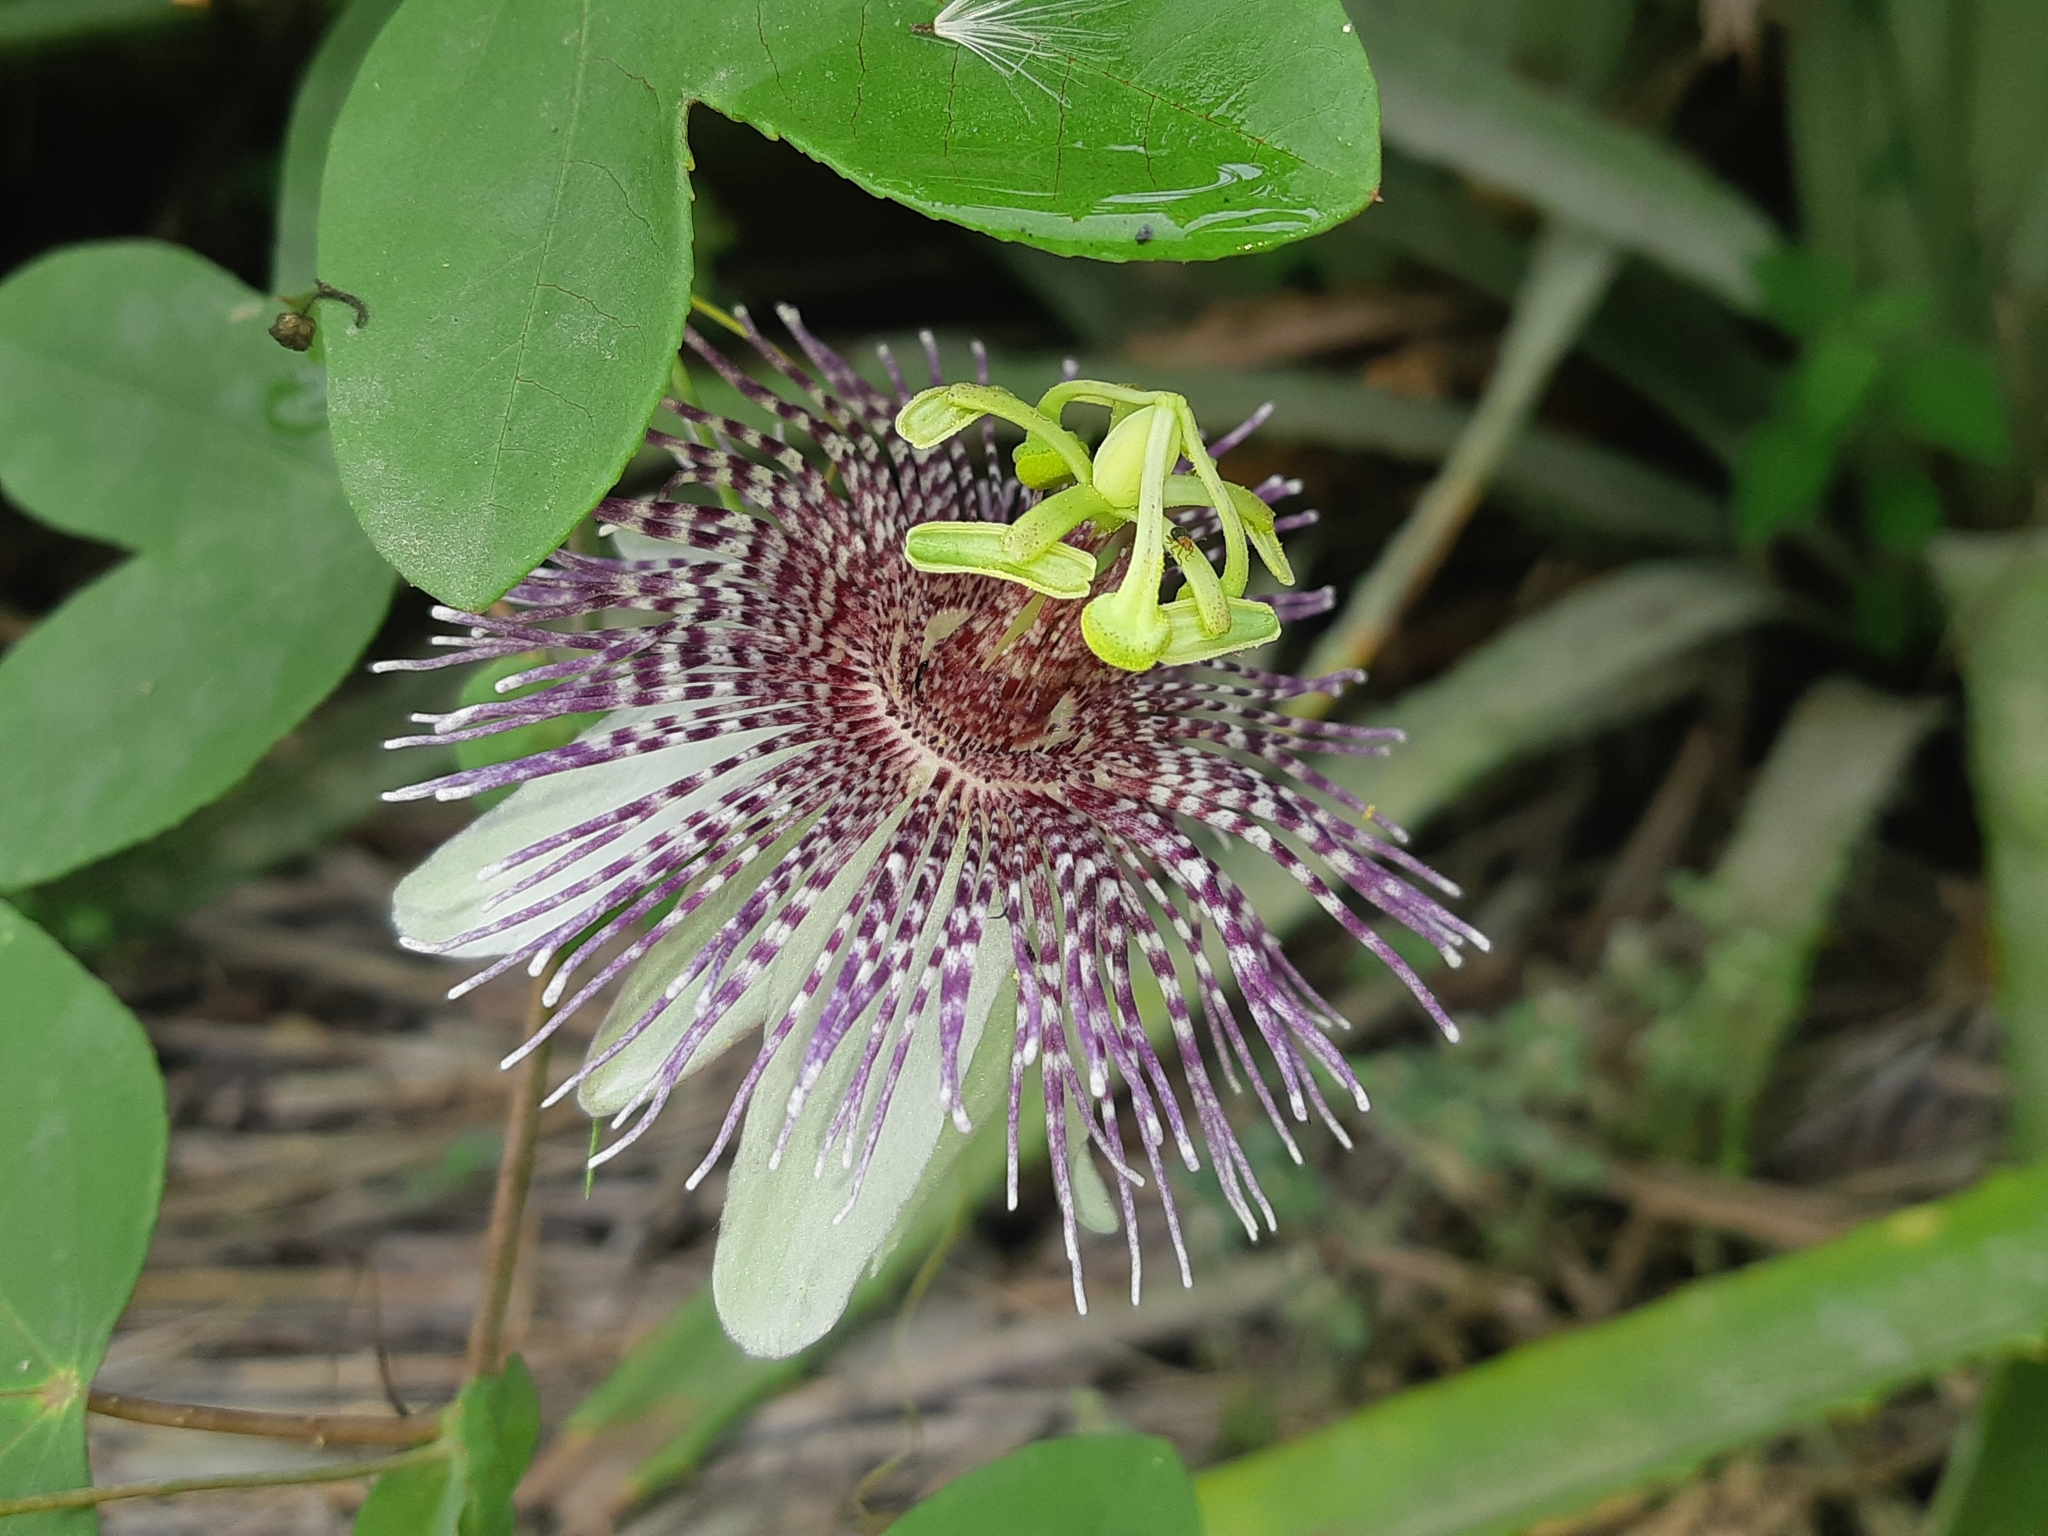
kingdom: Plantae
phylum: Tracheophyta
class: Magnoliopsida
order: Malpighiales
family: Passifloraceae
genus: Passiflora
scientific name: Passiflora sprucei
